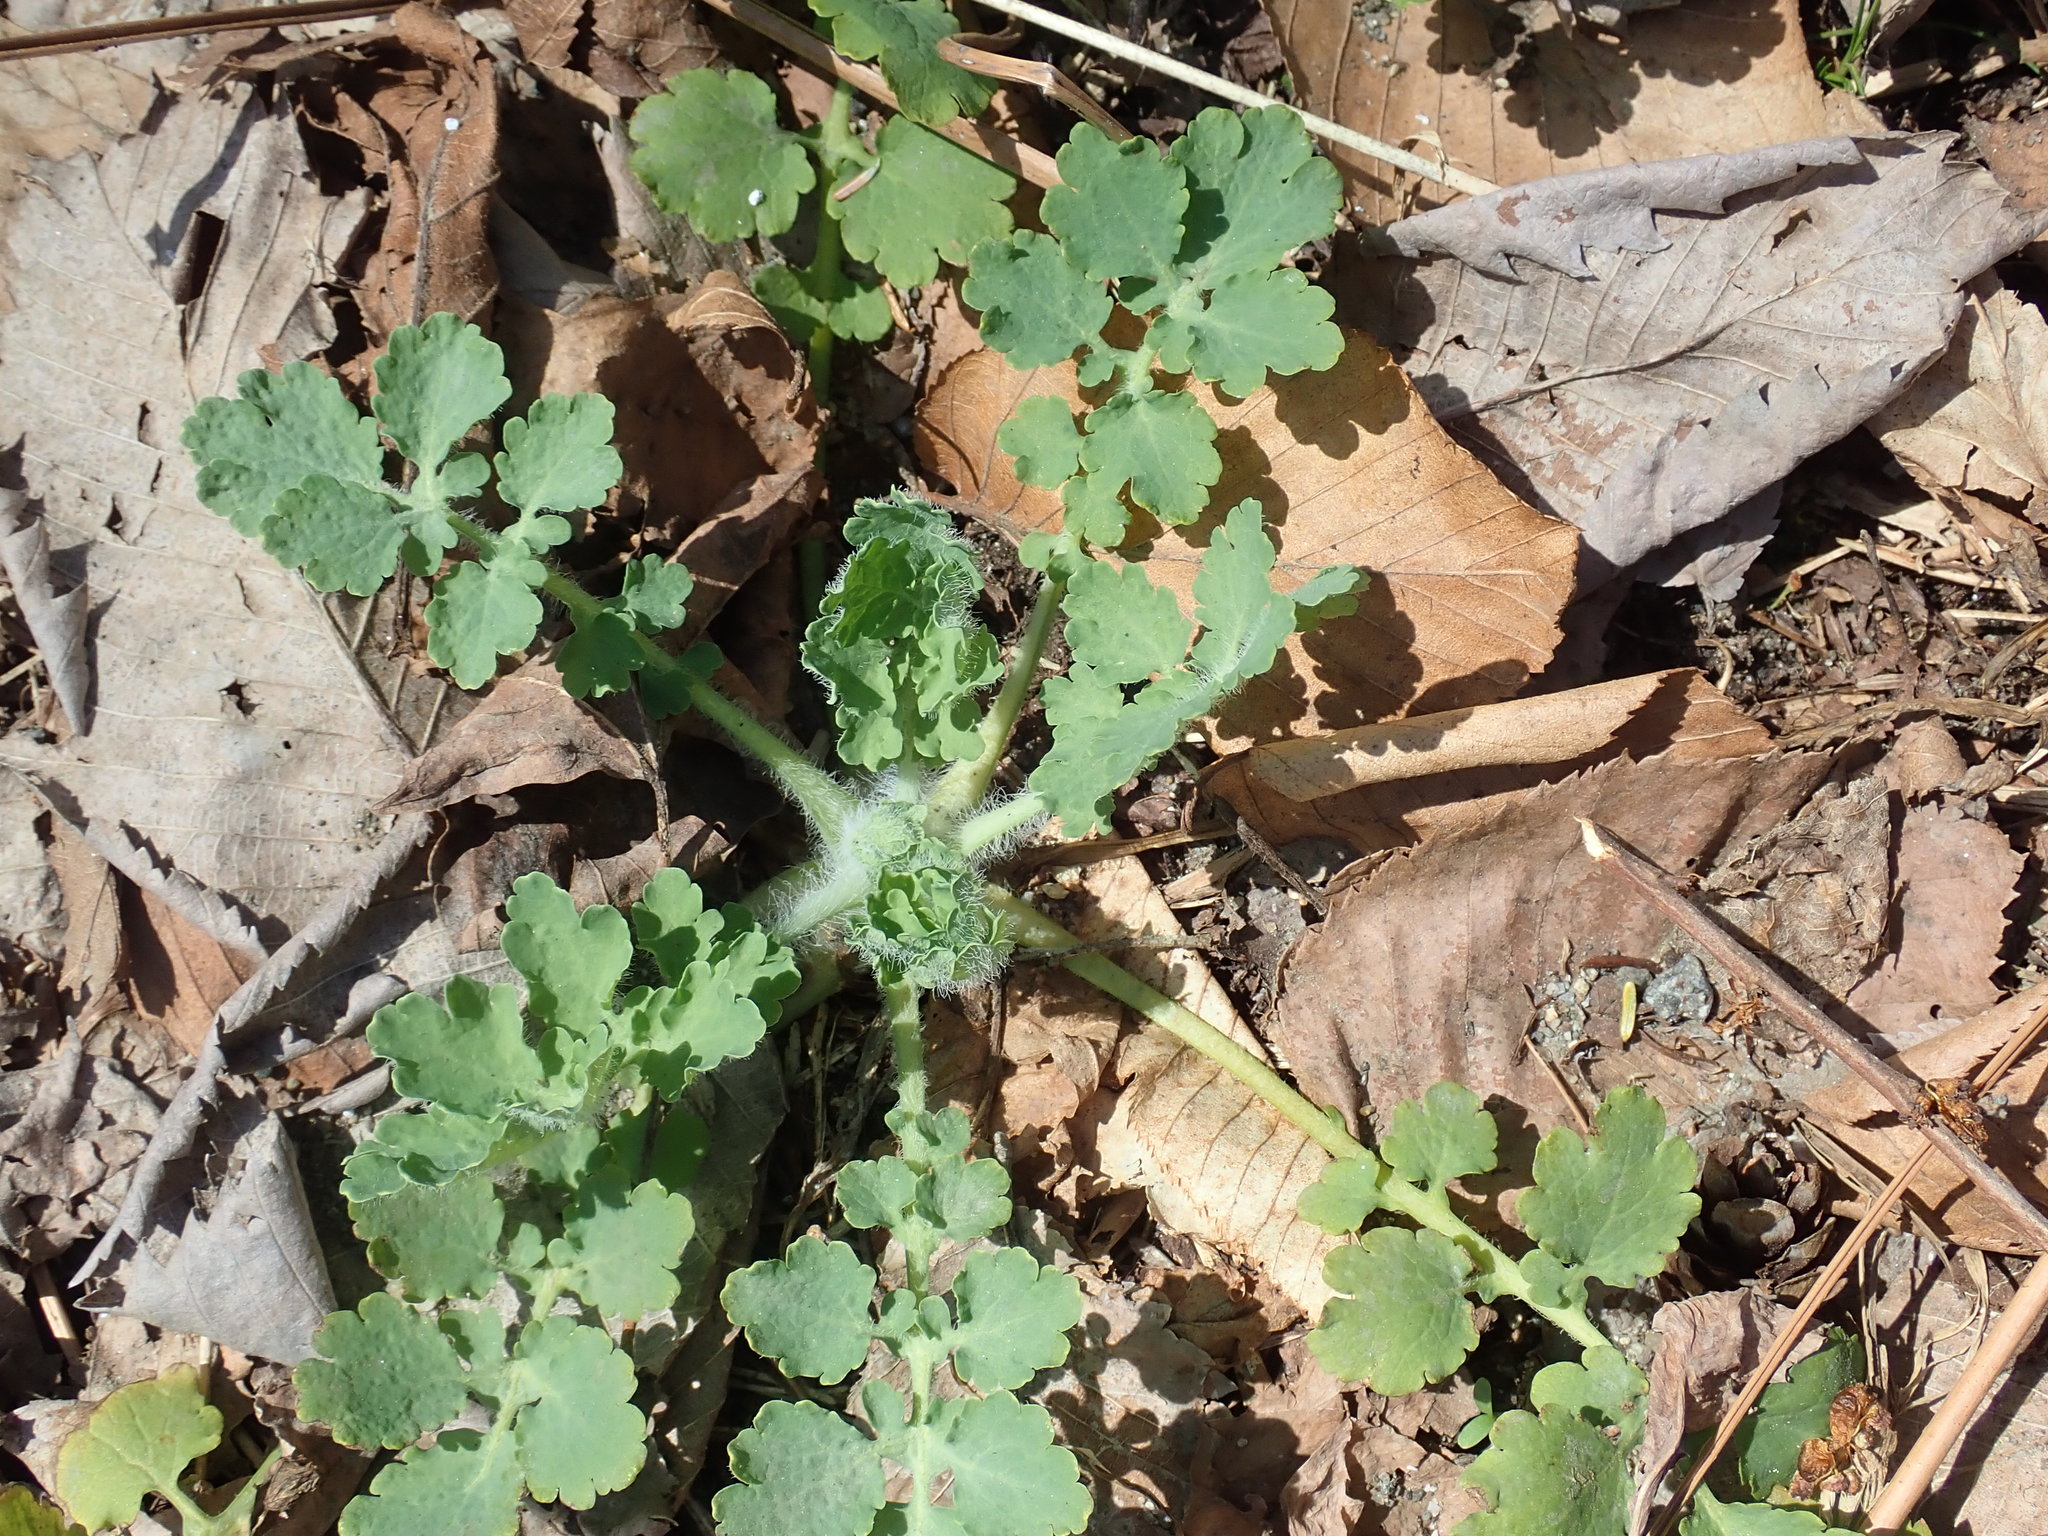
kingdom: Plantae
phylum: Tracheophyta
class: Magnoliopsida
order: Ranunculales
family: Papaveraceae
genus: Chelidonium
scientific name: Chelidonium majus
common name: Greater celandine
